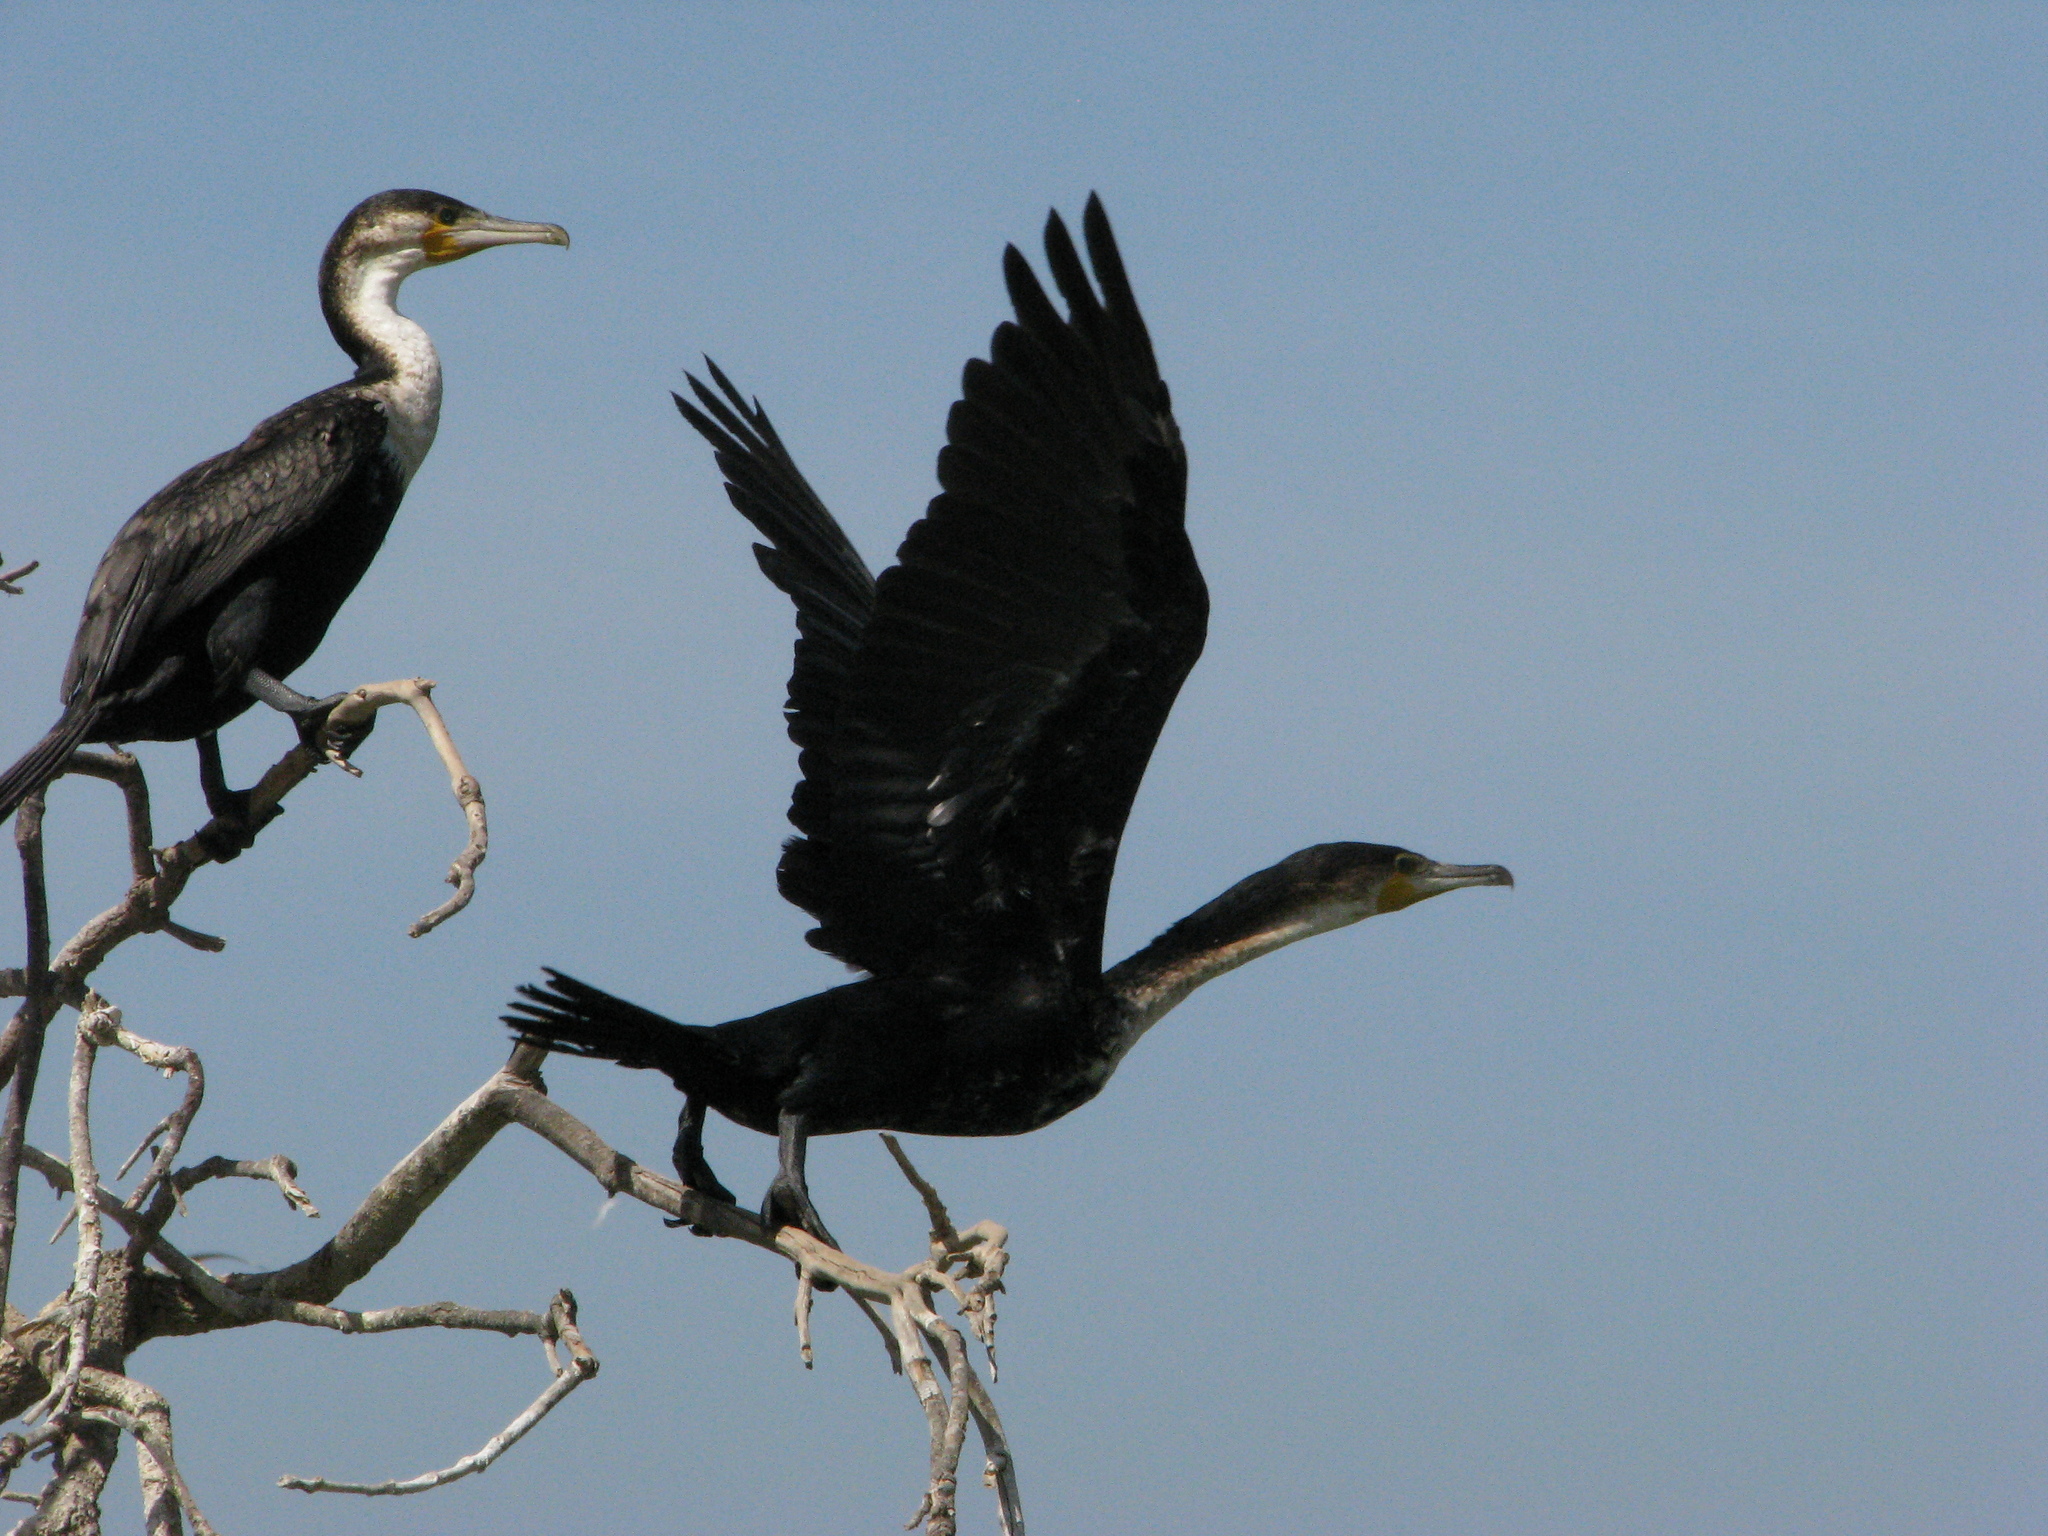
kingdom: Animalia
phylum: Chordata
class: Aves
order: Suliformes
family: Phalacrocoracidae
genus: Phalacrocorax
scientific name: Phalacrocorax carbo
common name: Great cormorant
